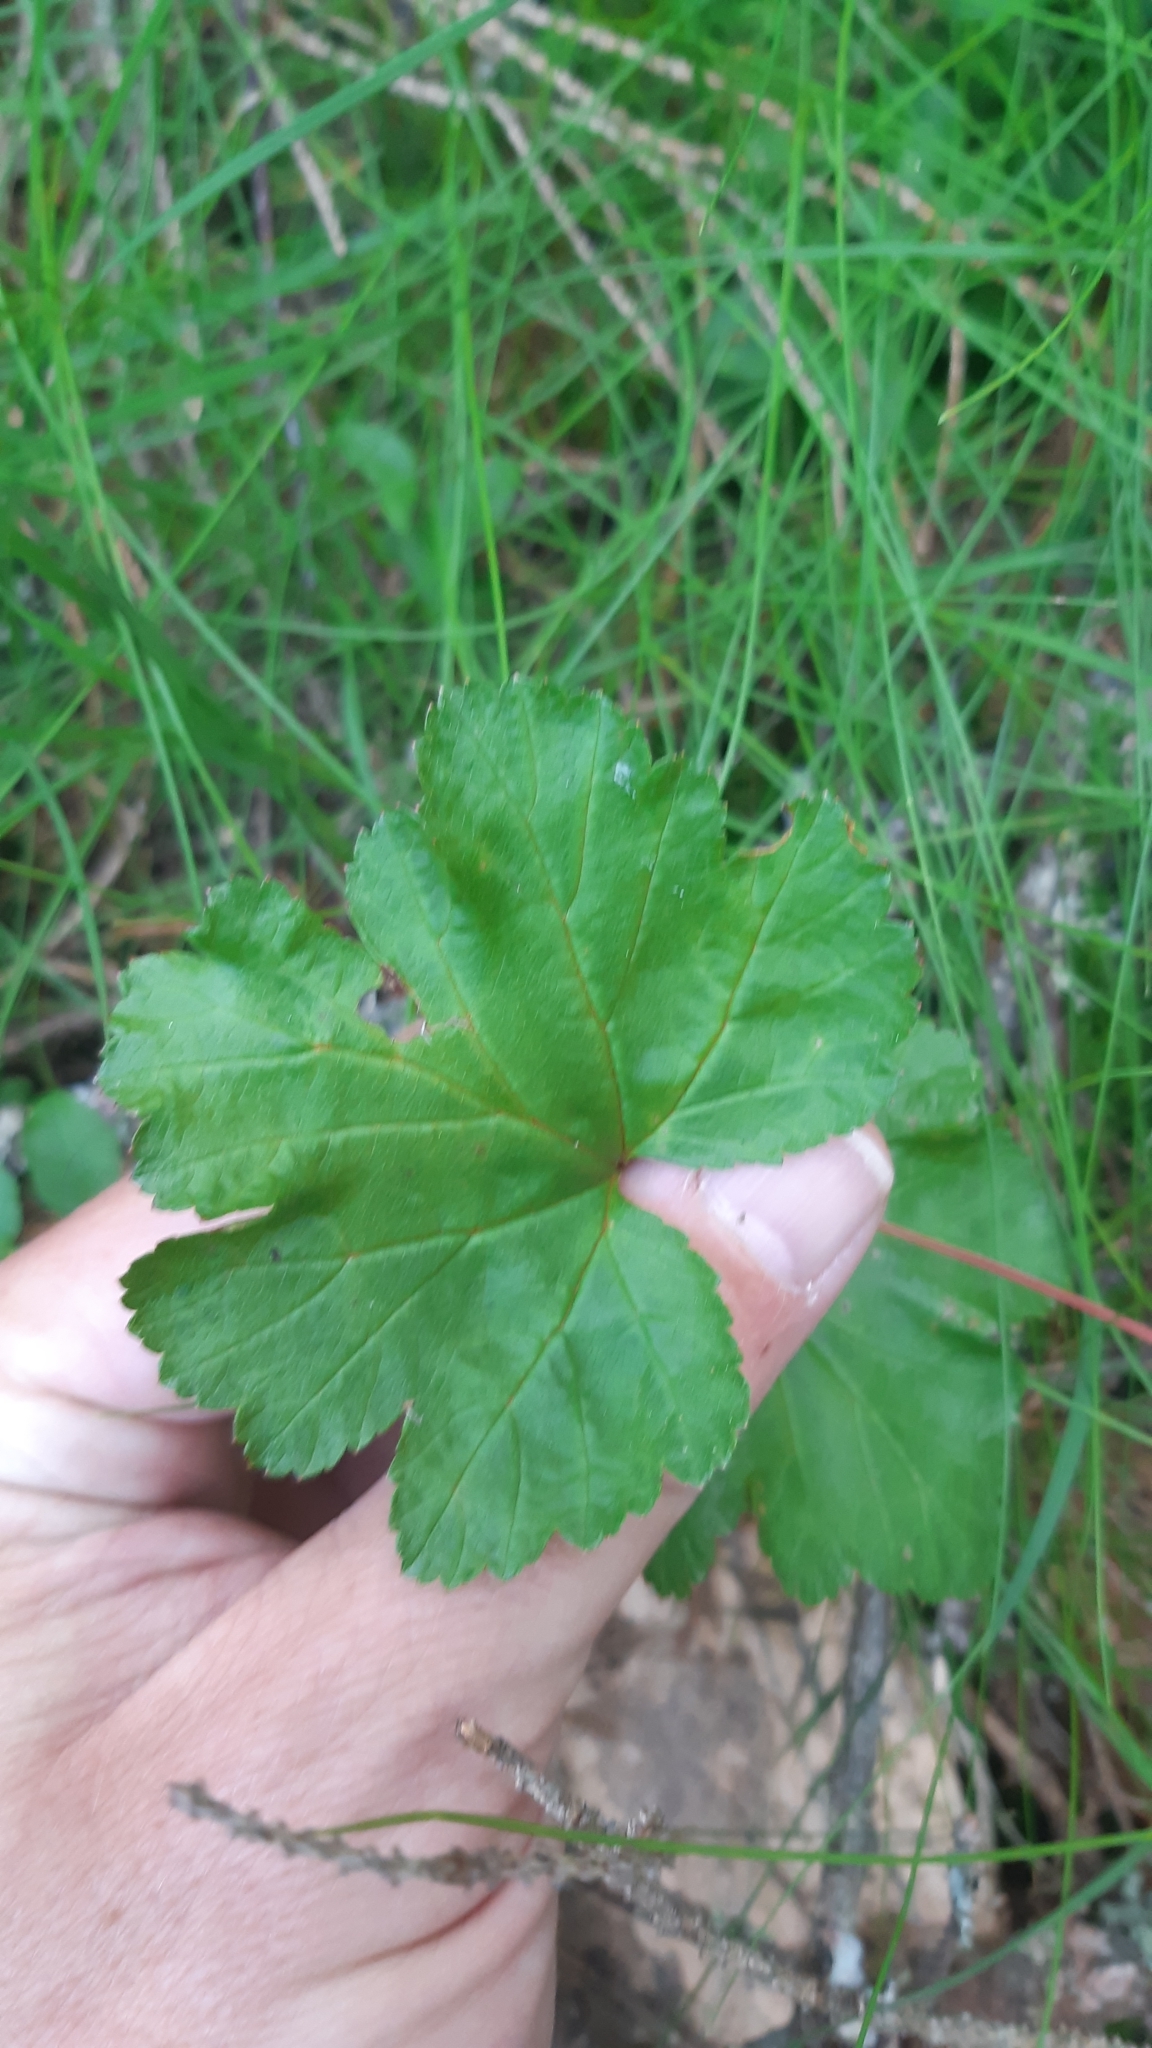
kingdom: Plantae
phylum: Tracheophyta
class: Magnoliopsida
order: Rosales
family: Rosaceae
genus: Rubus
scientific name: Rubus chamaemorus
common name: Cloudberry
